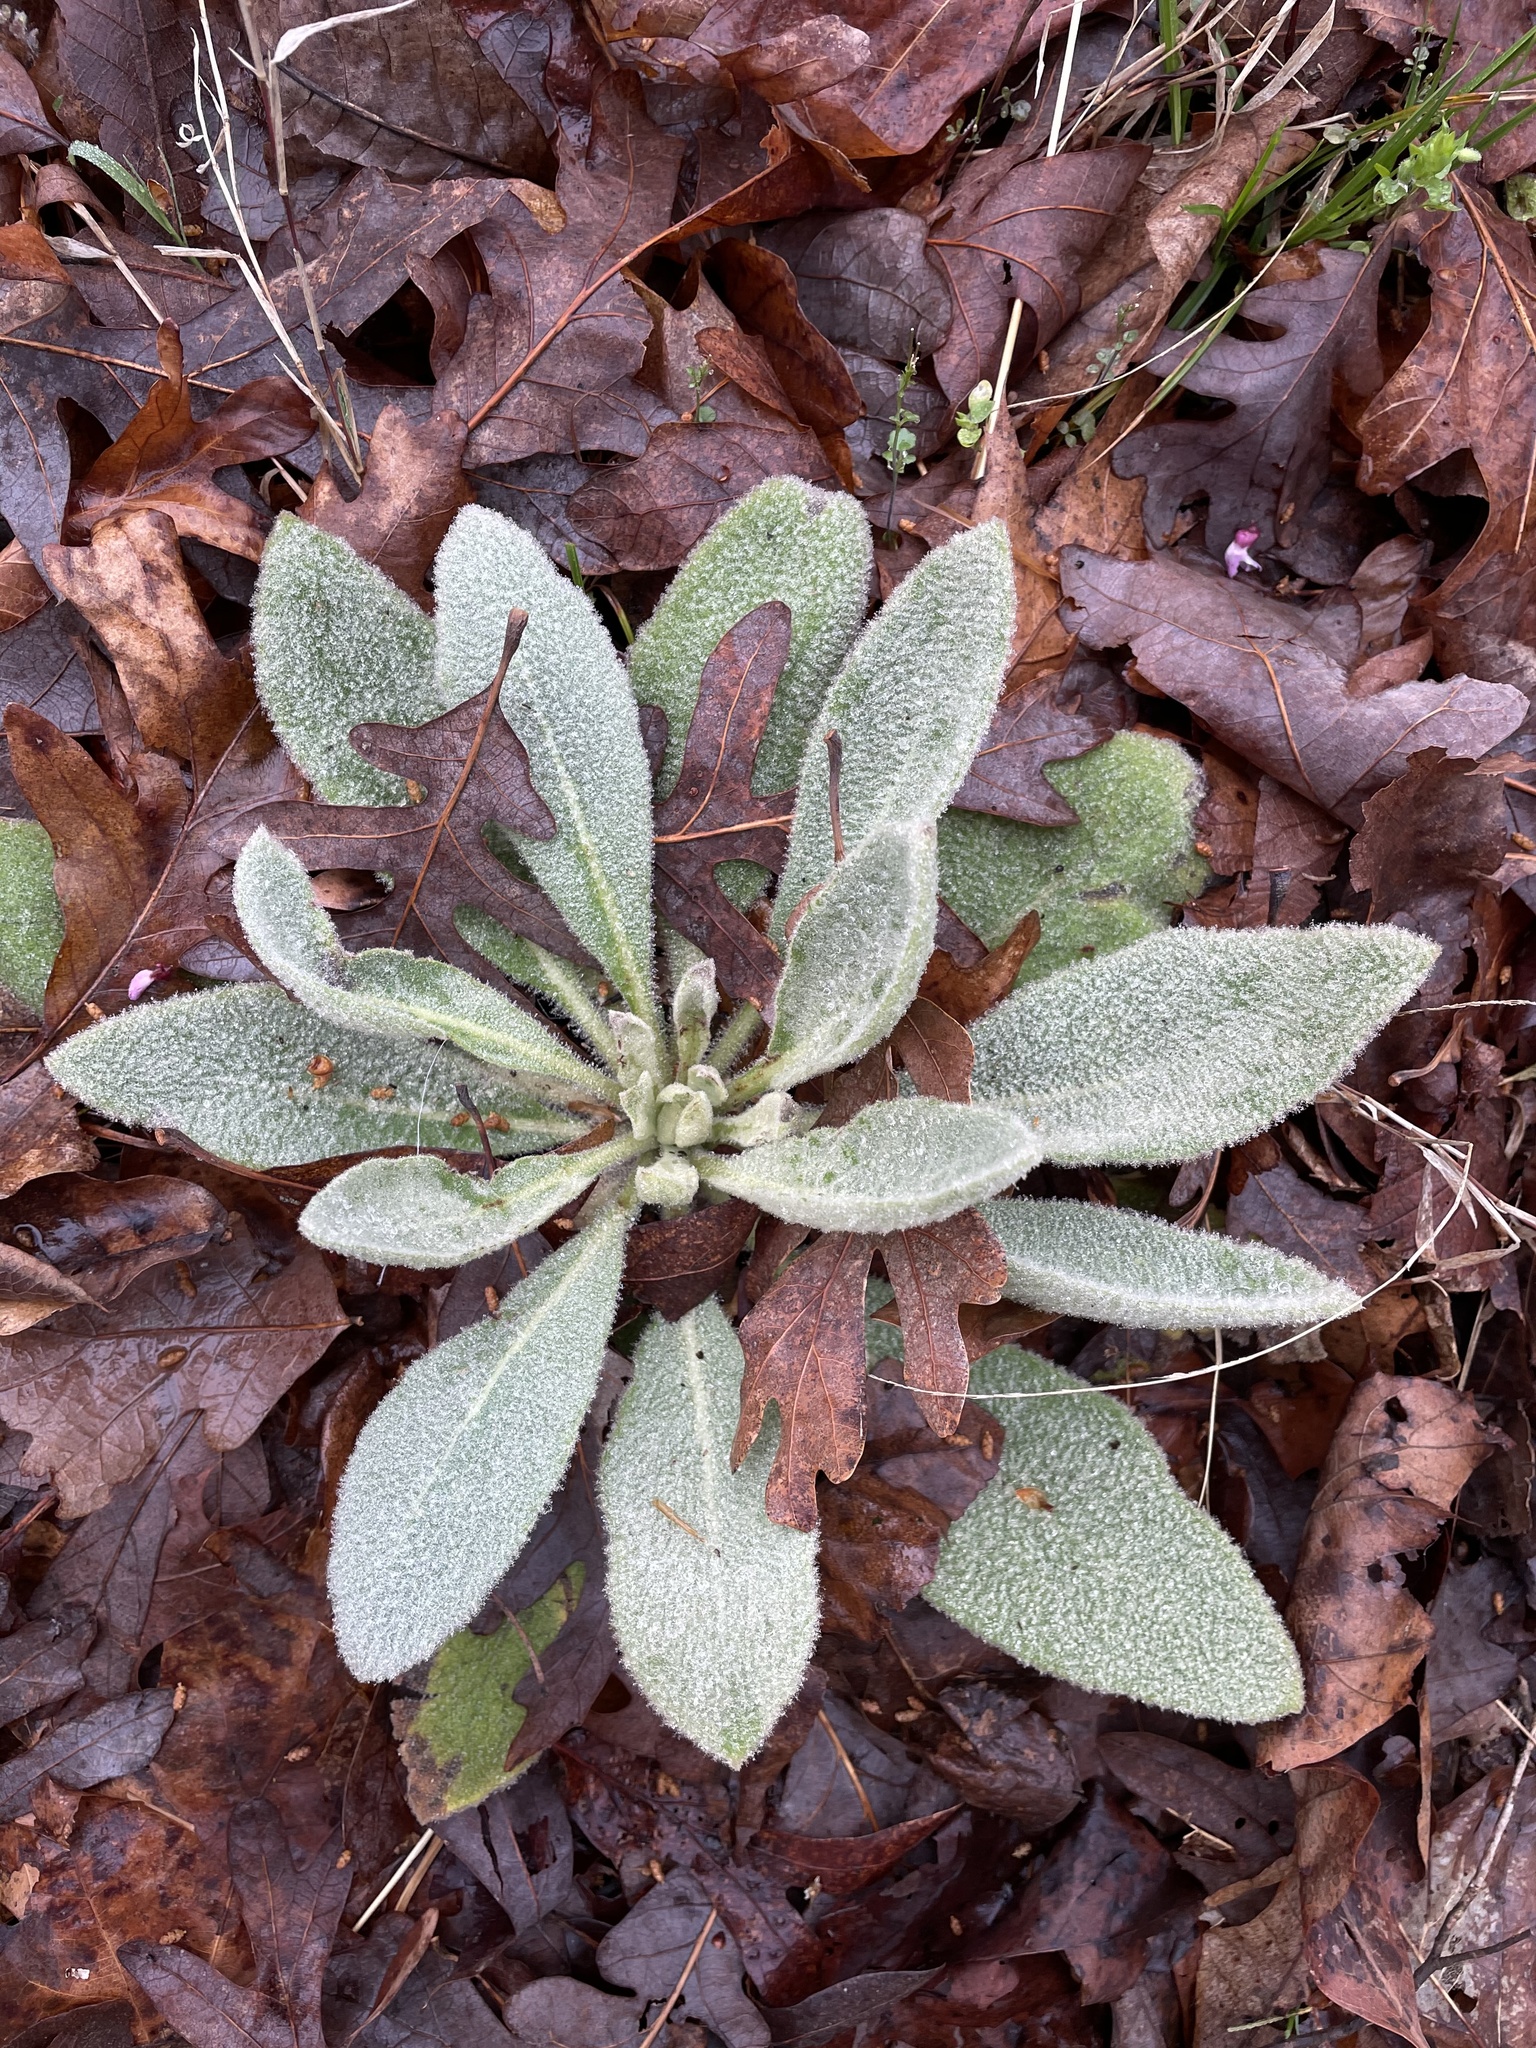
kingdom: Plantae
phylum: Tracheophyta
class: Magnoliopsida
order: Lamiales
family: Scrophulariaceae
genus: Verbascum
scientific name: Verbascum thapsus
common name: Common mullein
